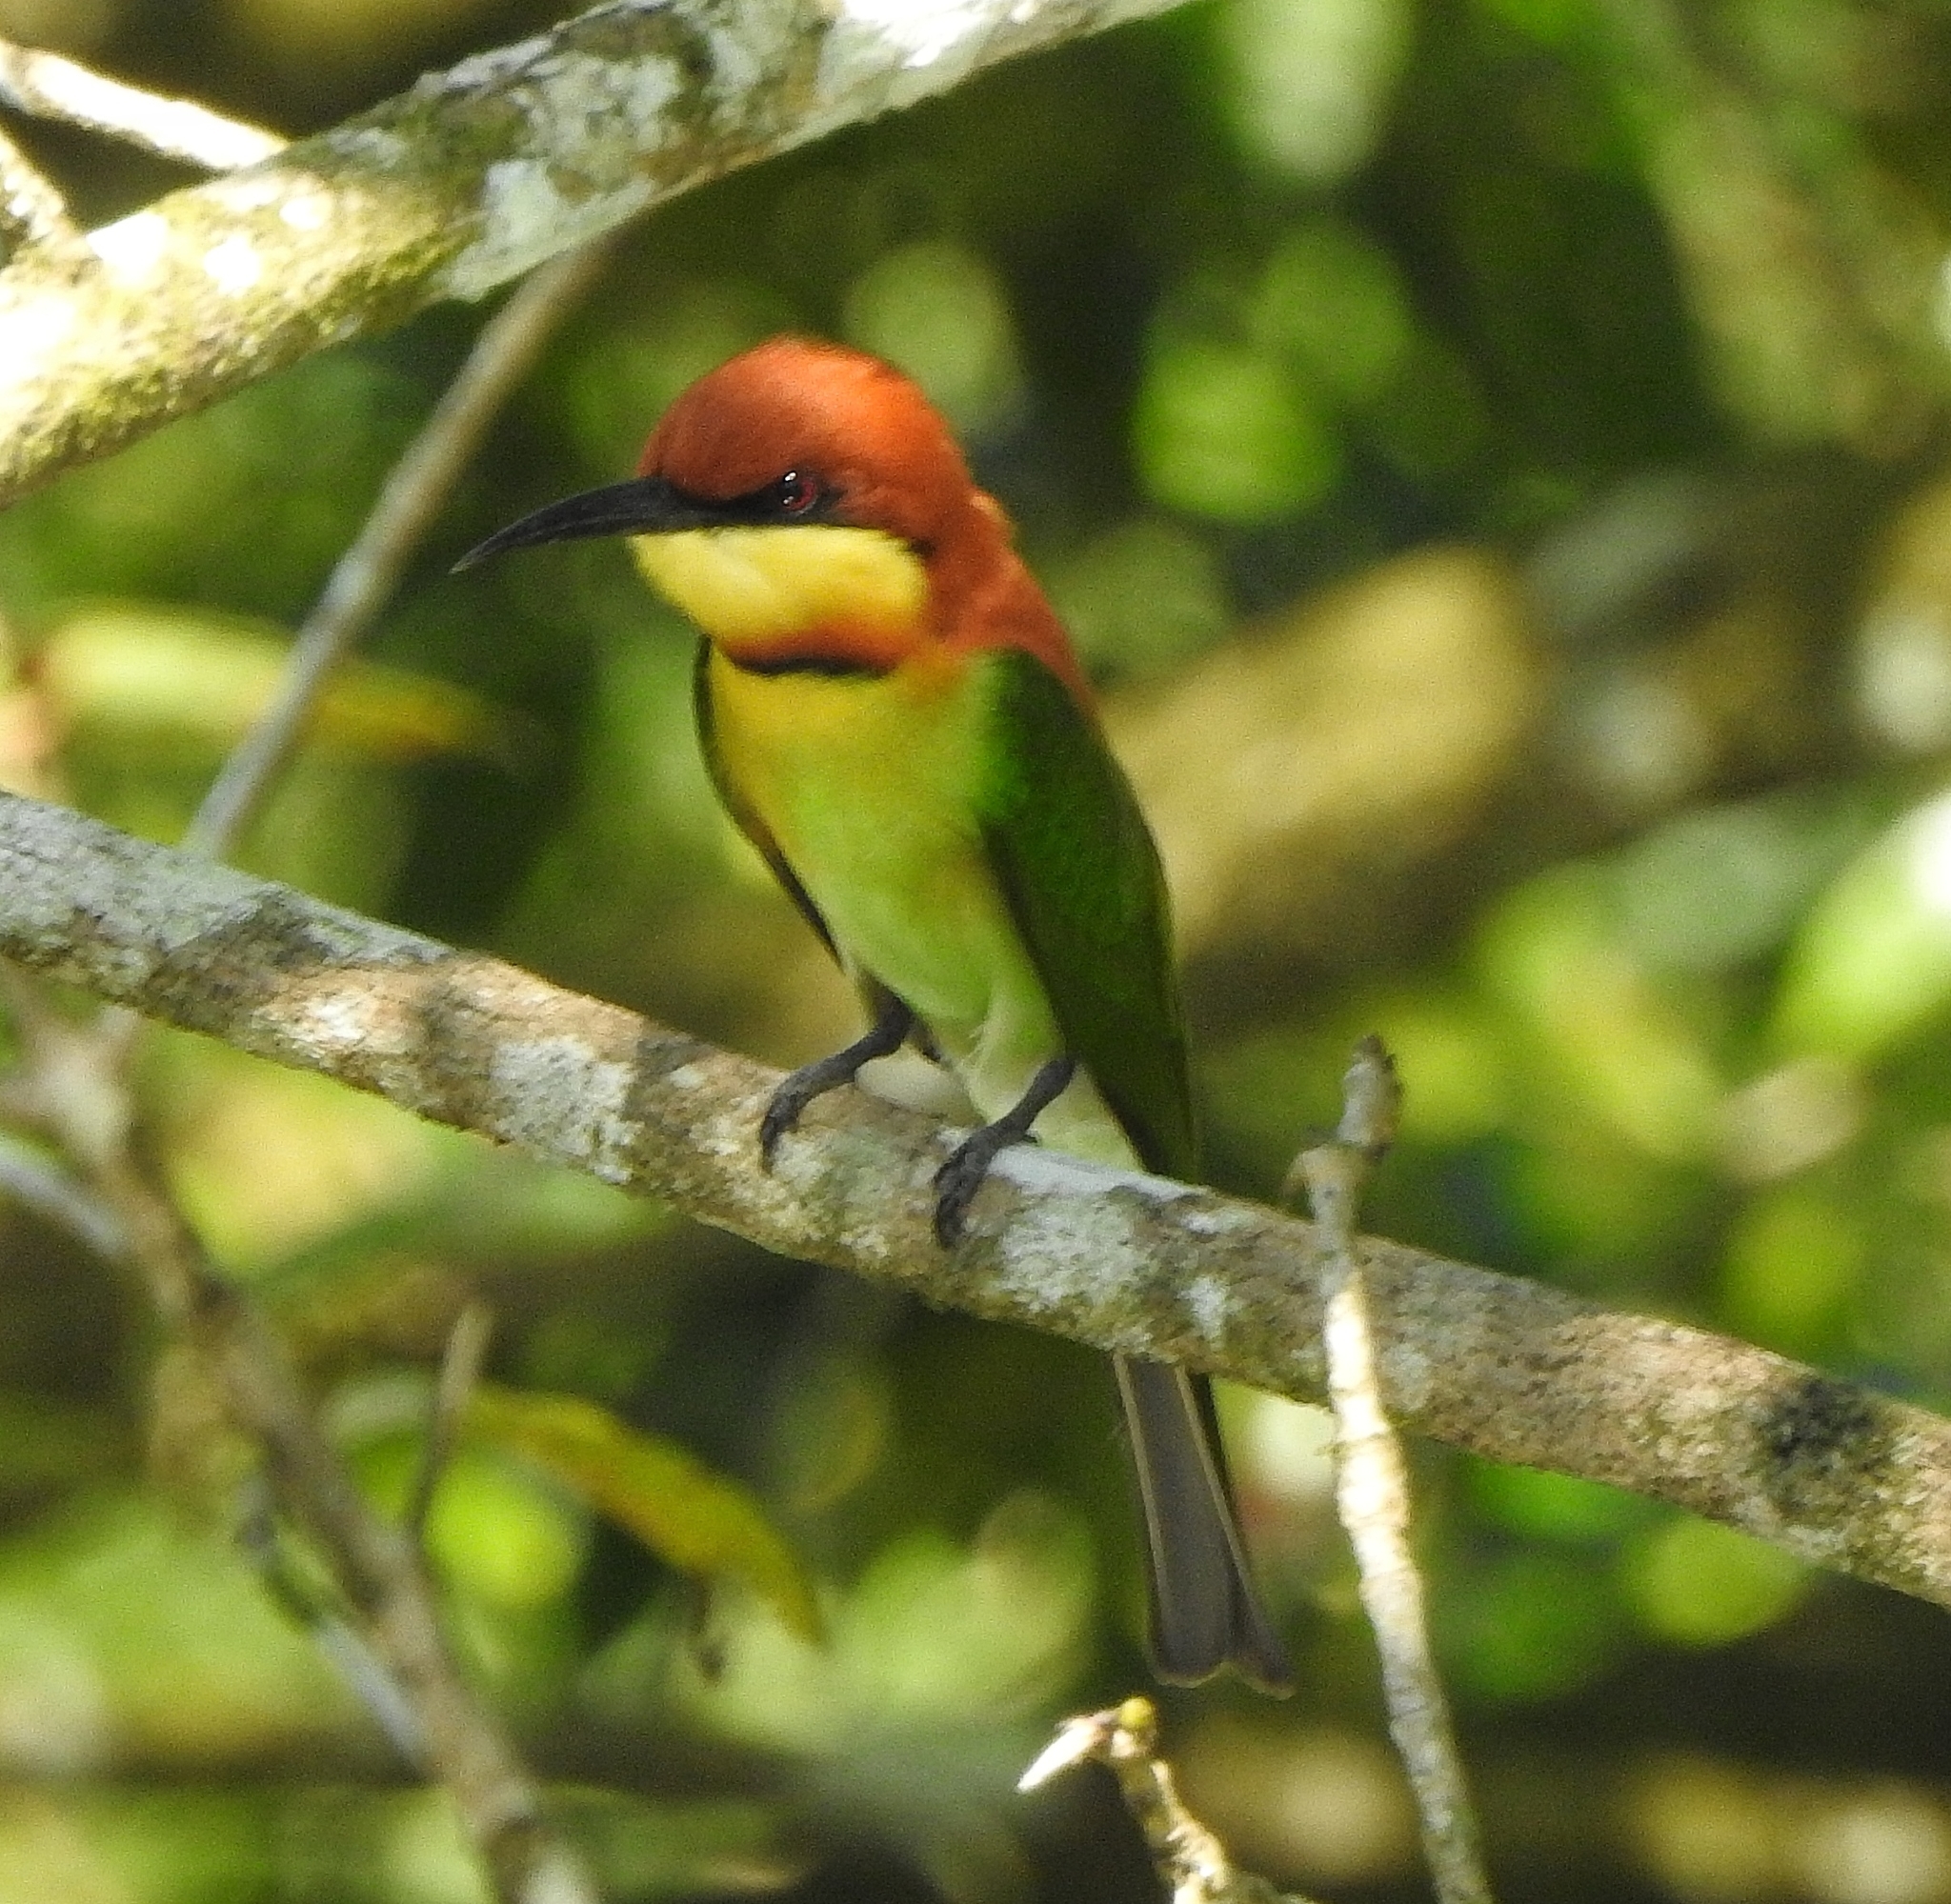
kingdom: Animalia
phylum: Chordata
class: Aves
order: Coraciiformes
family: Meropidae
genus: Merops
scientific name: Merops leschenaulti
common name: Chestnut-headed bee-eater
